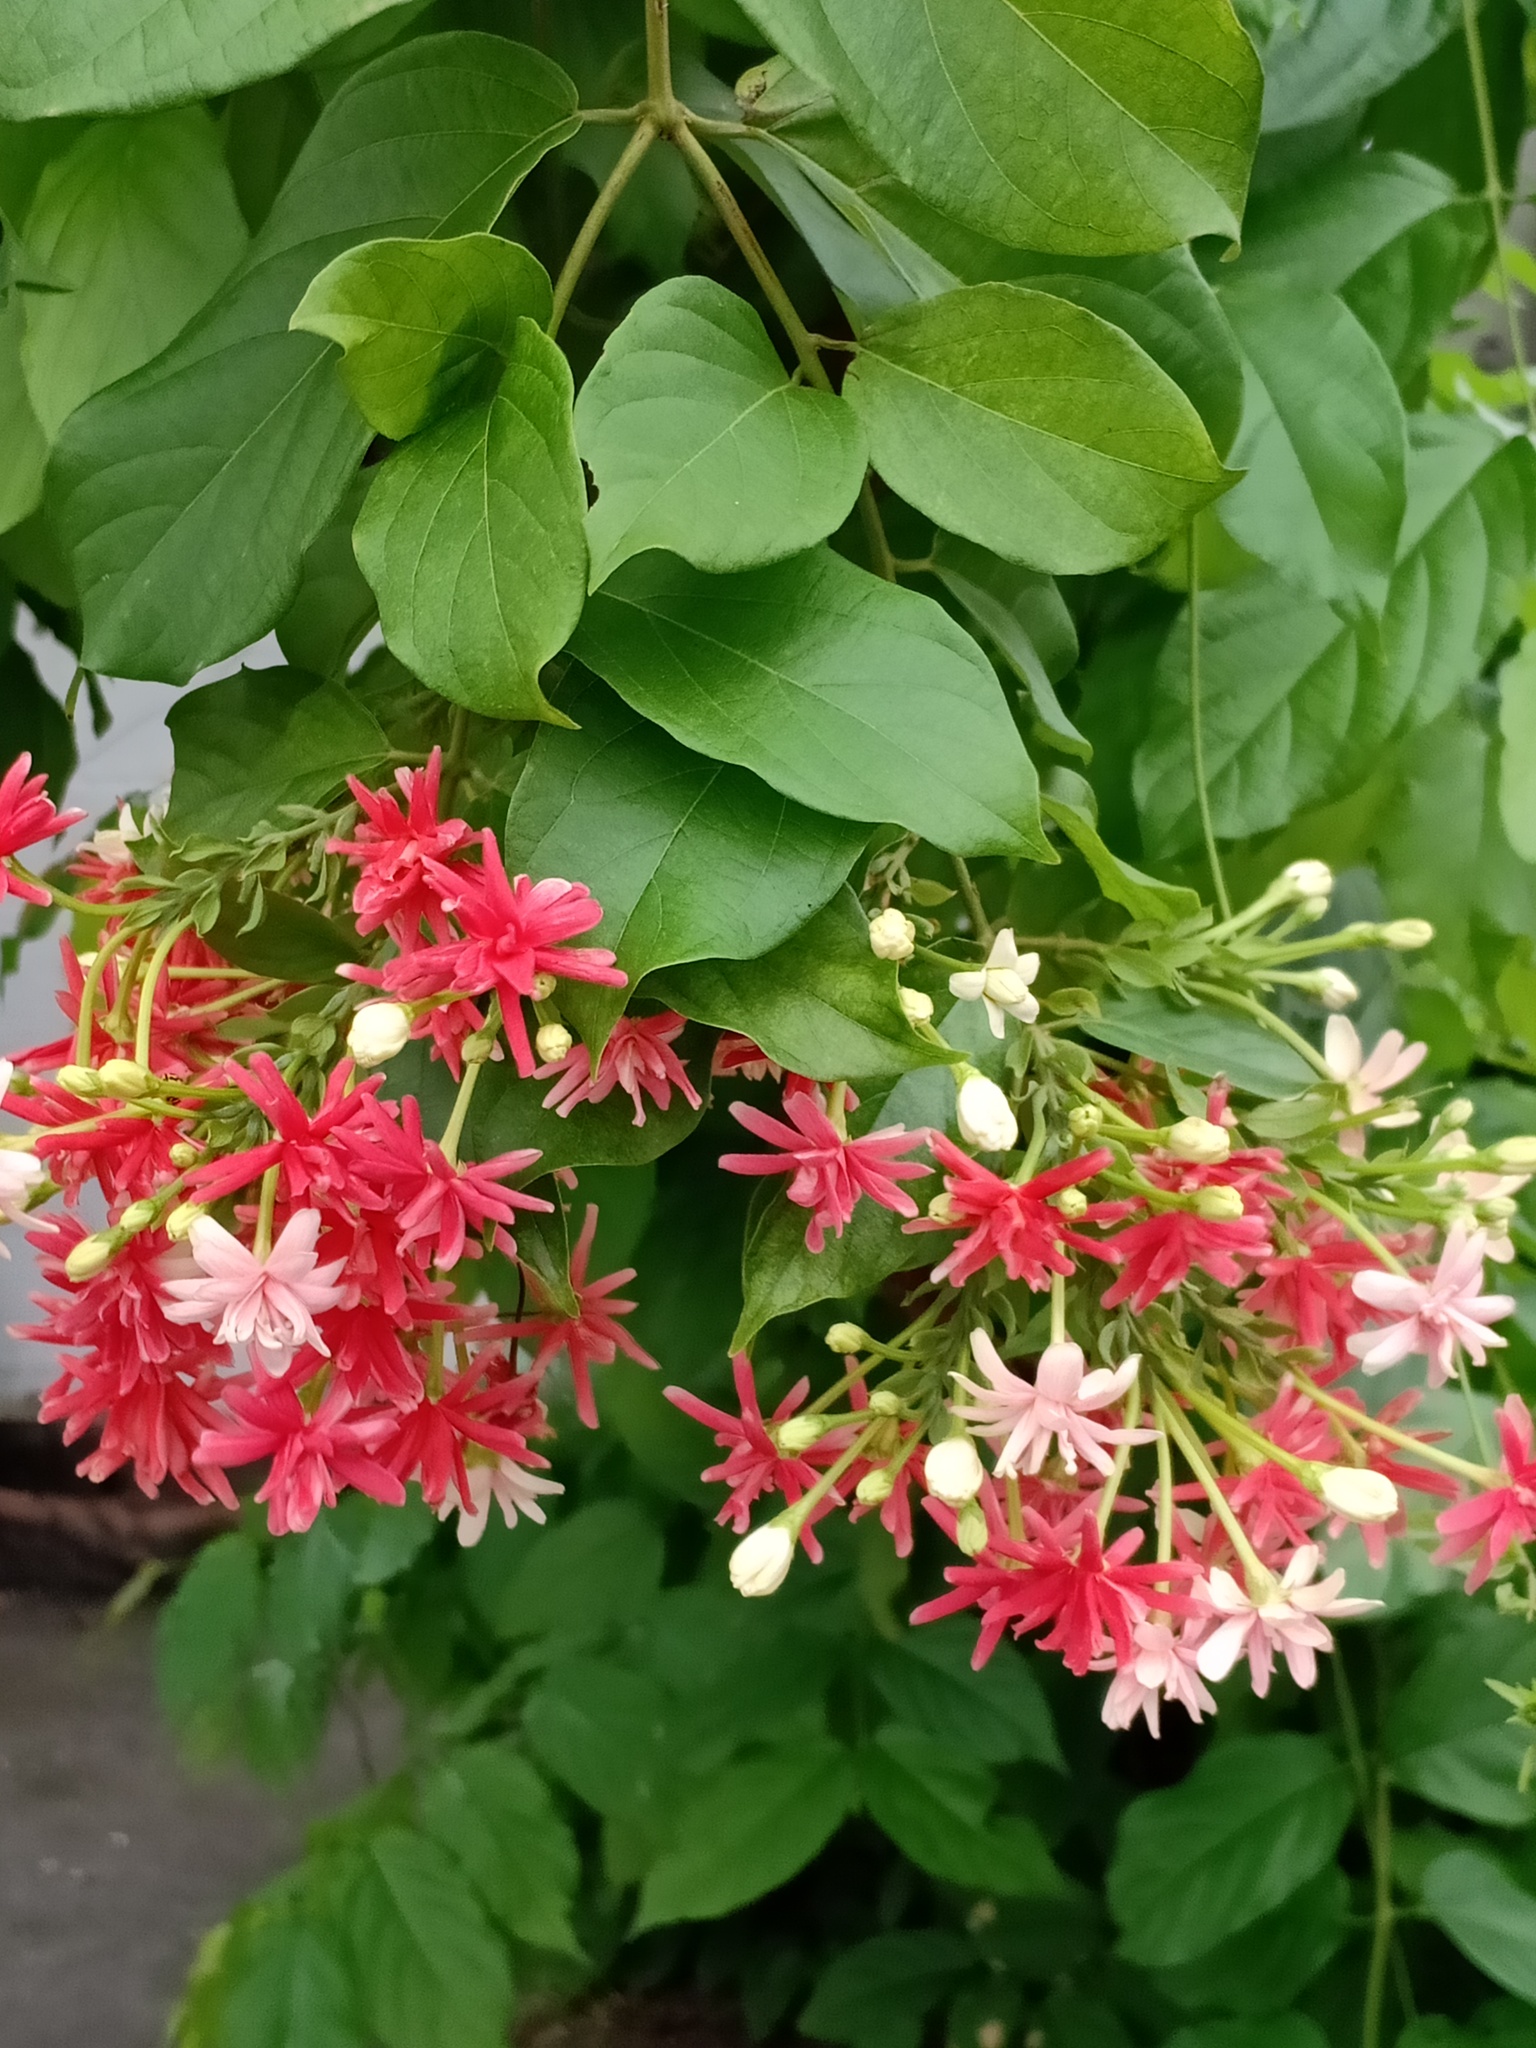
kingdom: Plantae
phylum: Tracheophyta
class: Magnoliopsida
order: Myrtales
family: Combretaceae
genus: Combretum
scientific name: Combretum indicum
